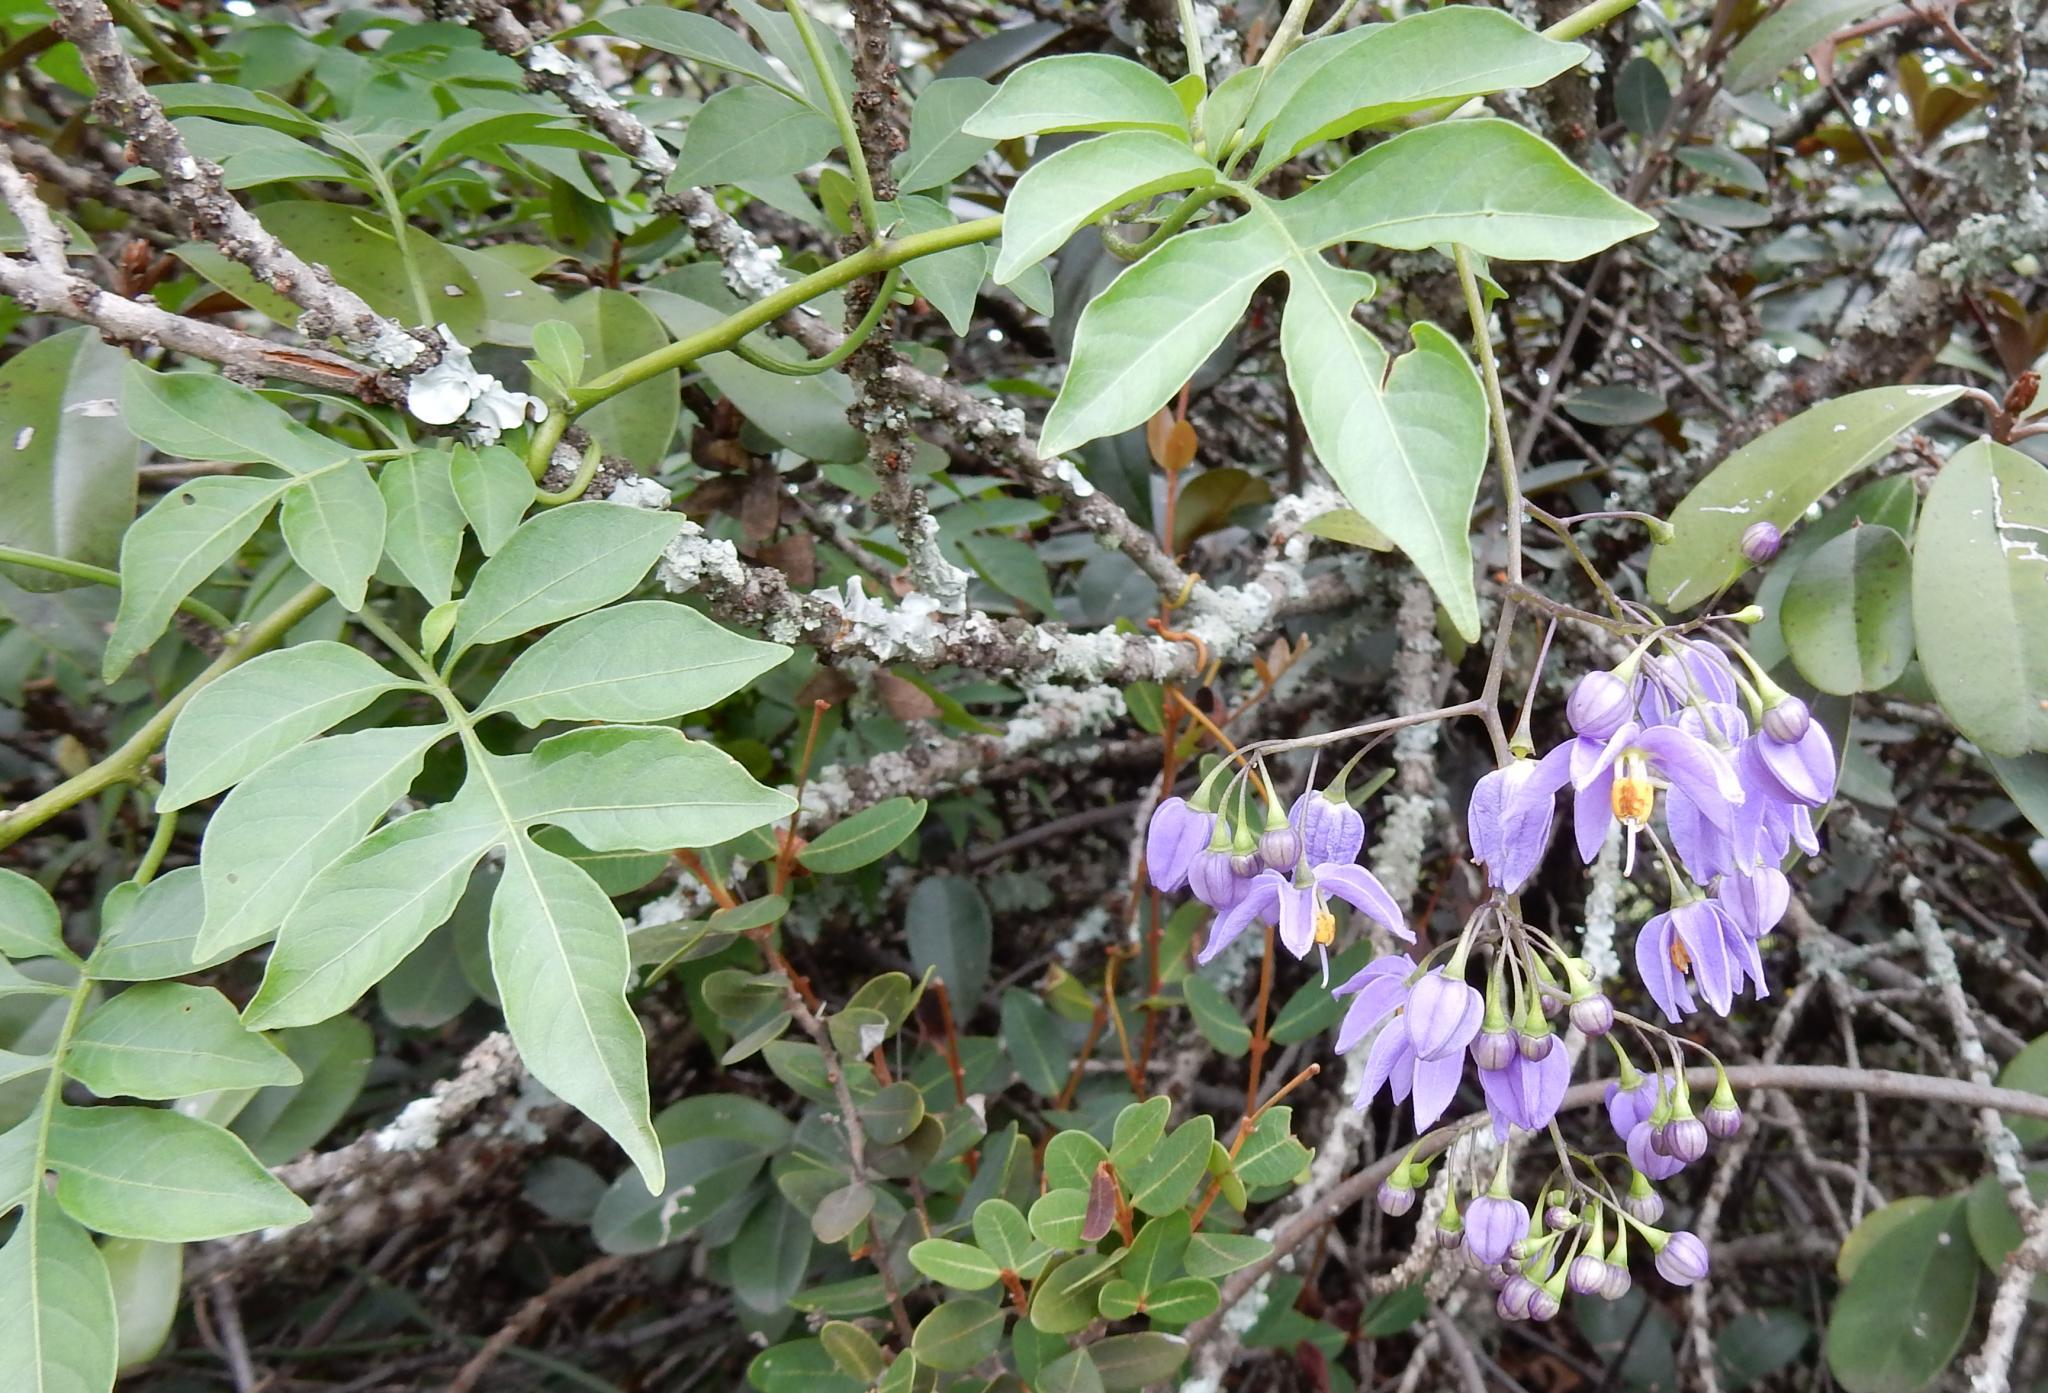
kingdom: Plantae
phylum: Tracheophyta
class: Magnoliopsida
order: Solanales
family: Solanaceae
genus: Solanum
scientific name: Solanum seaforthianum
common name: Brazilian nightshade
